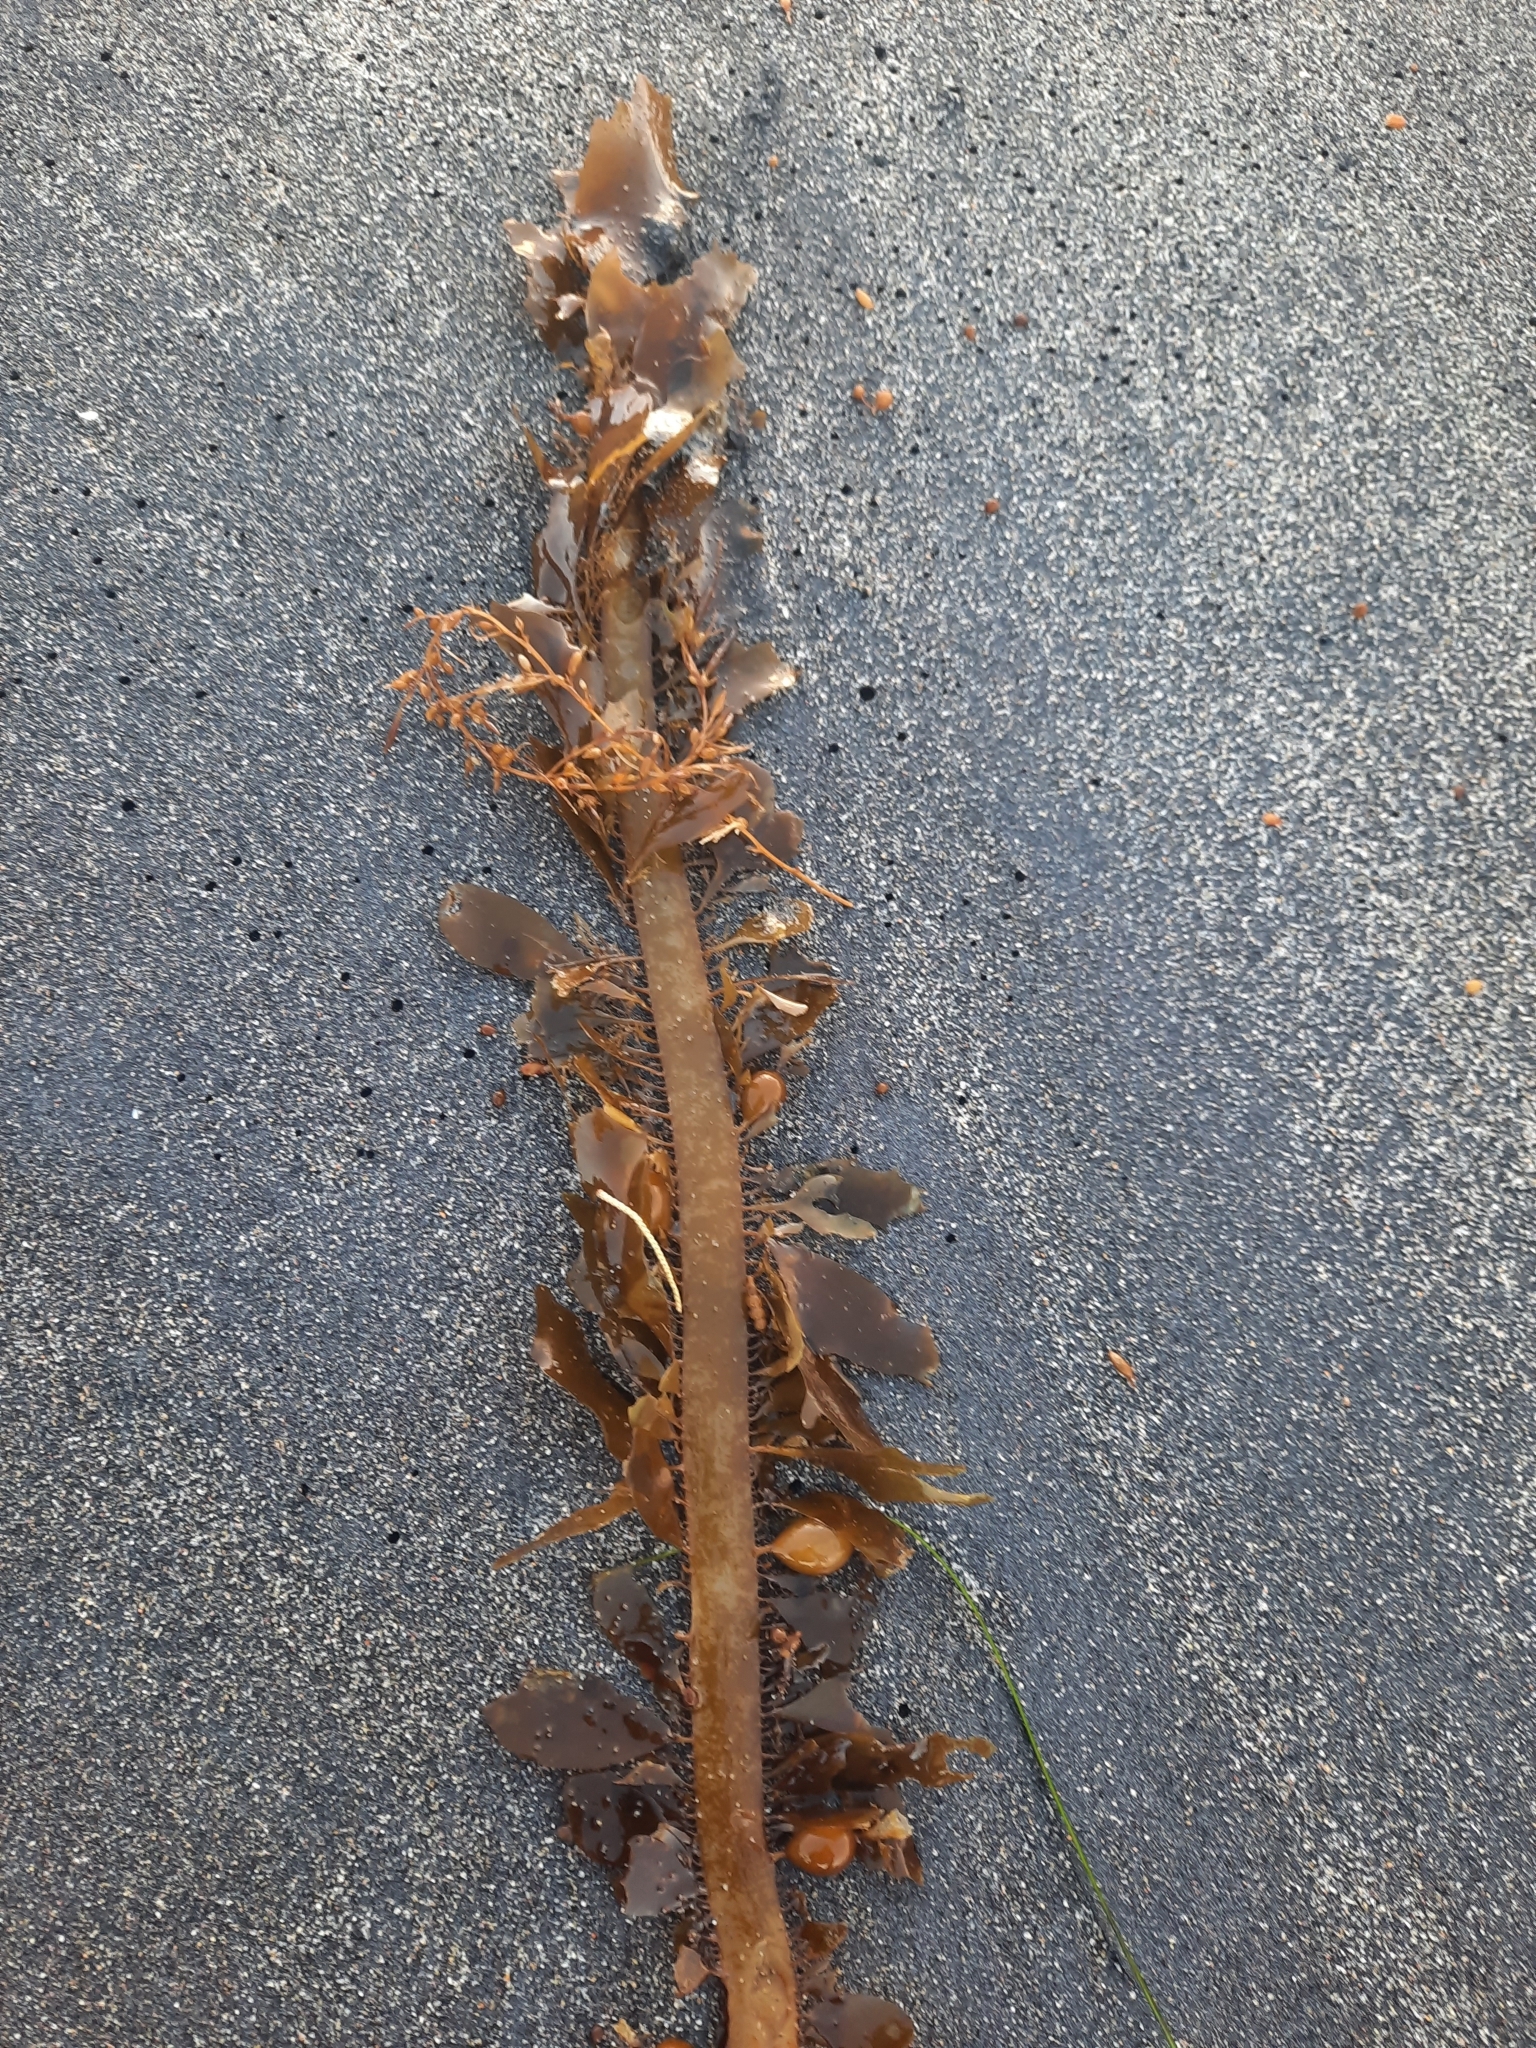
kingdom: Chromista
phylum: Ochrophyta
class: Phaeophyceae
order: Laminariales
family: Lessoniaceae
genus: Egregia
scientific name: Egregia menziesii
